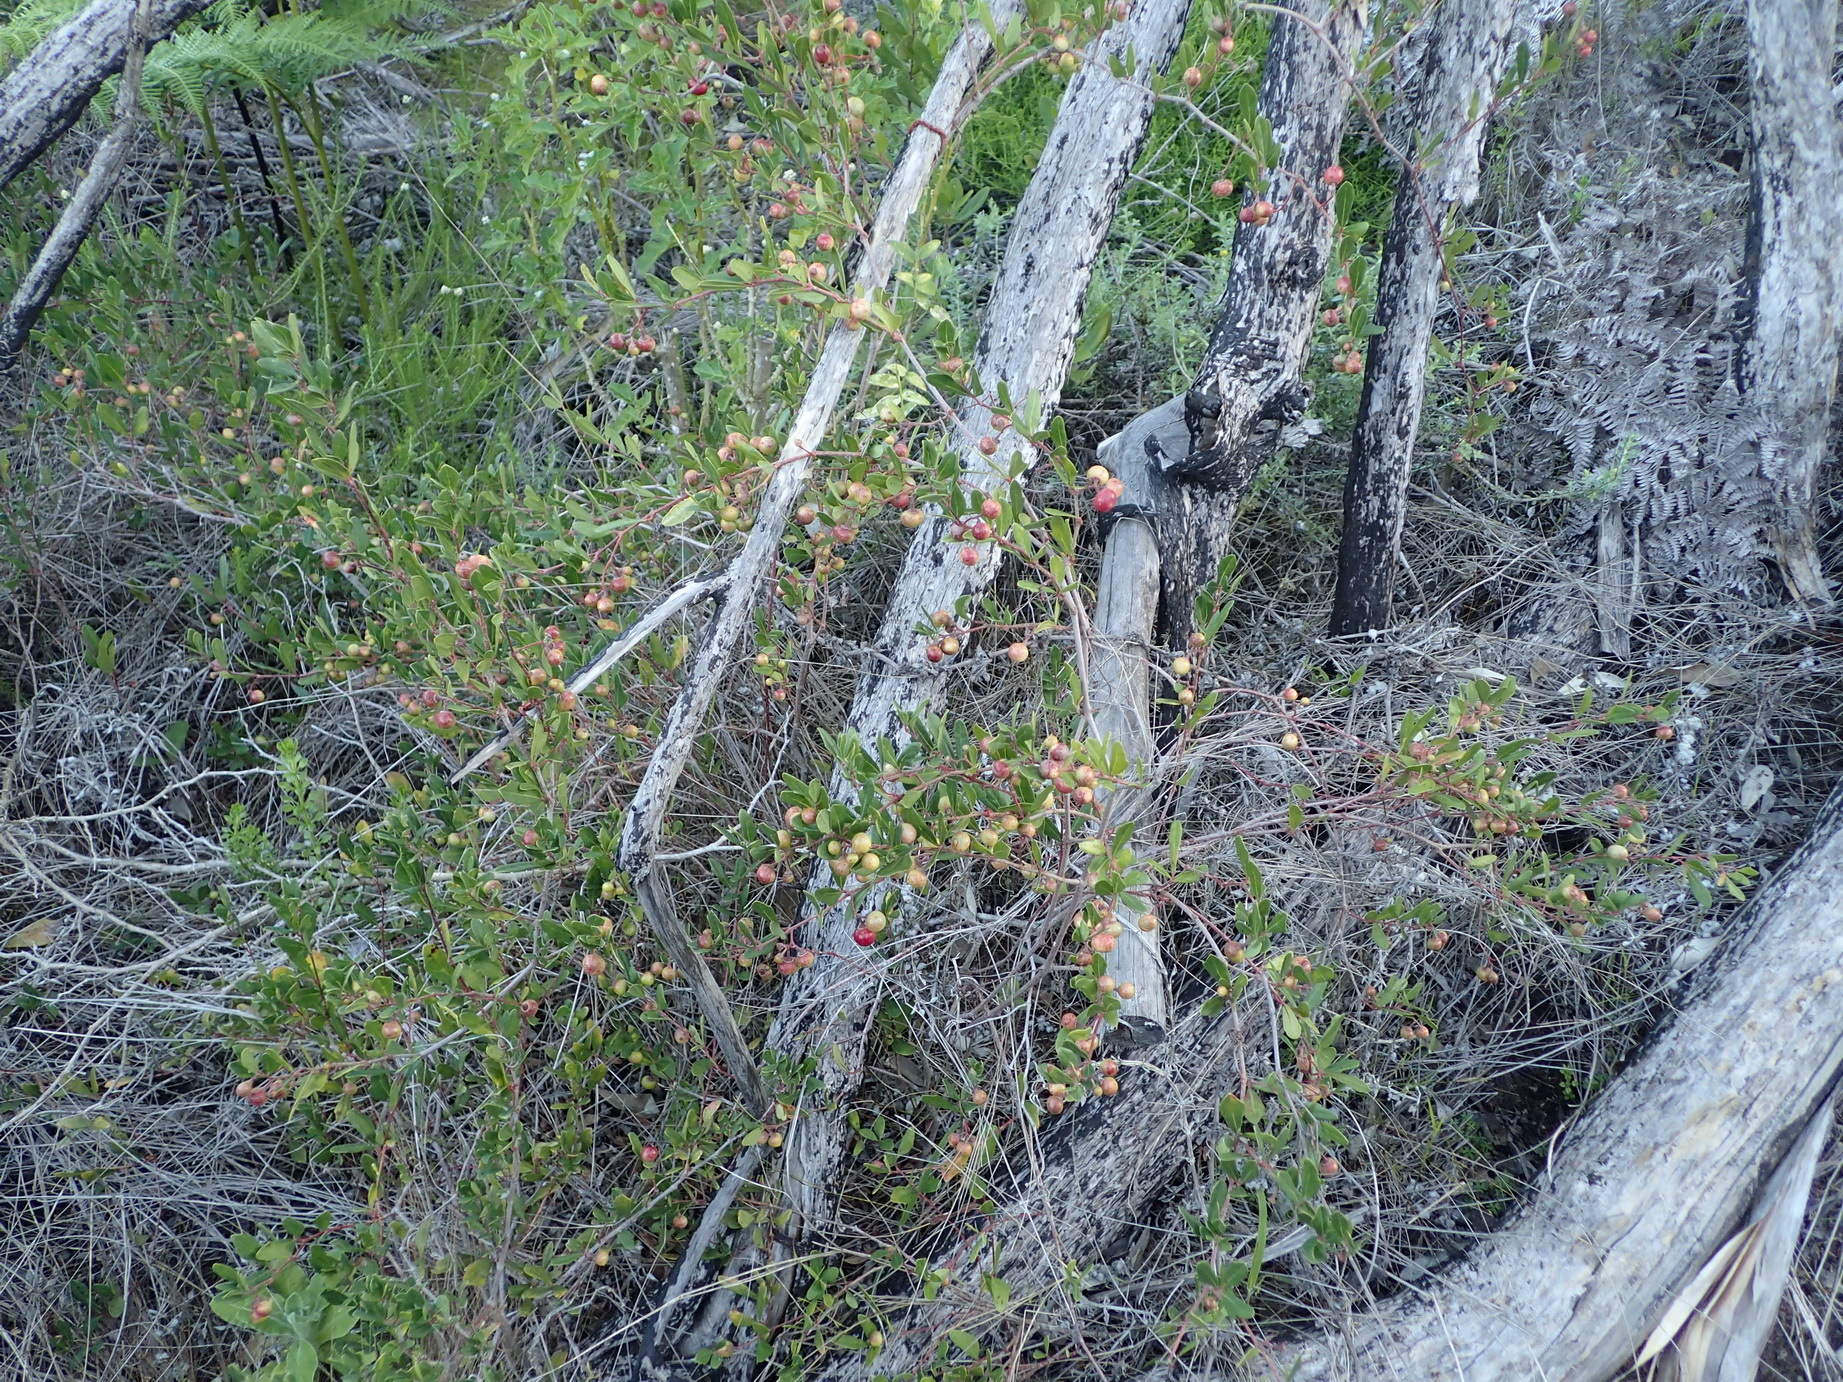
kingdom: Plantae
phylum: Tracheophyta
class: Magnoliopsida
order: Vitales
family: Vitaceae
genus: Rhoicissus
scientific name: Rhoicissus tridentata
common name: Common forest grape
